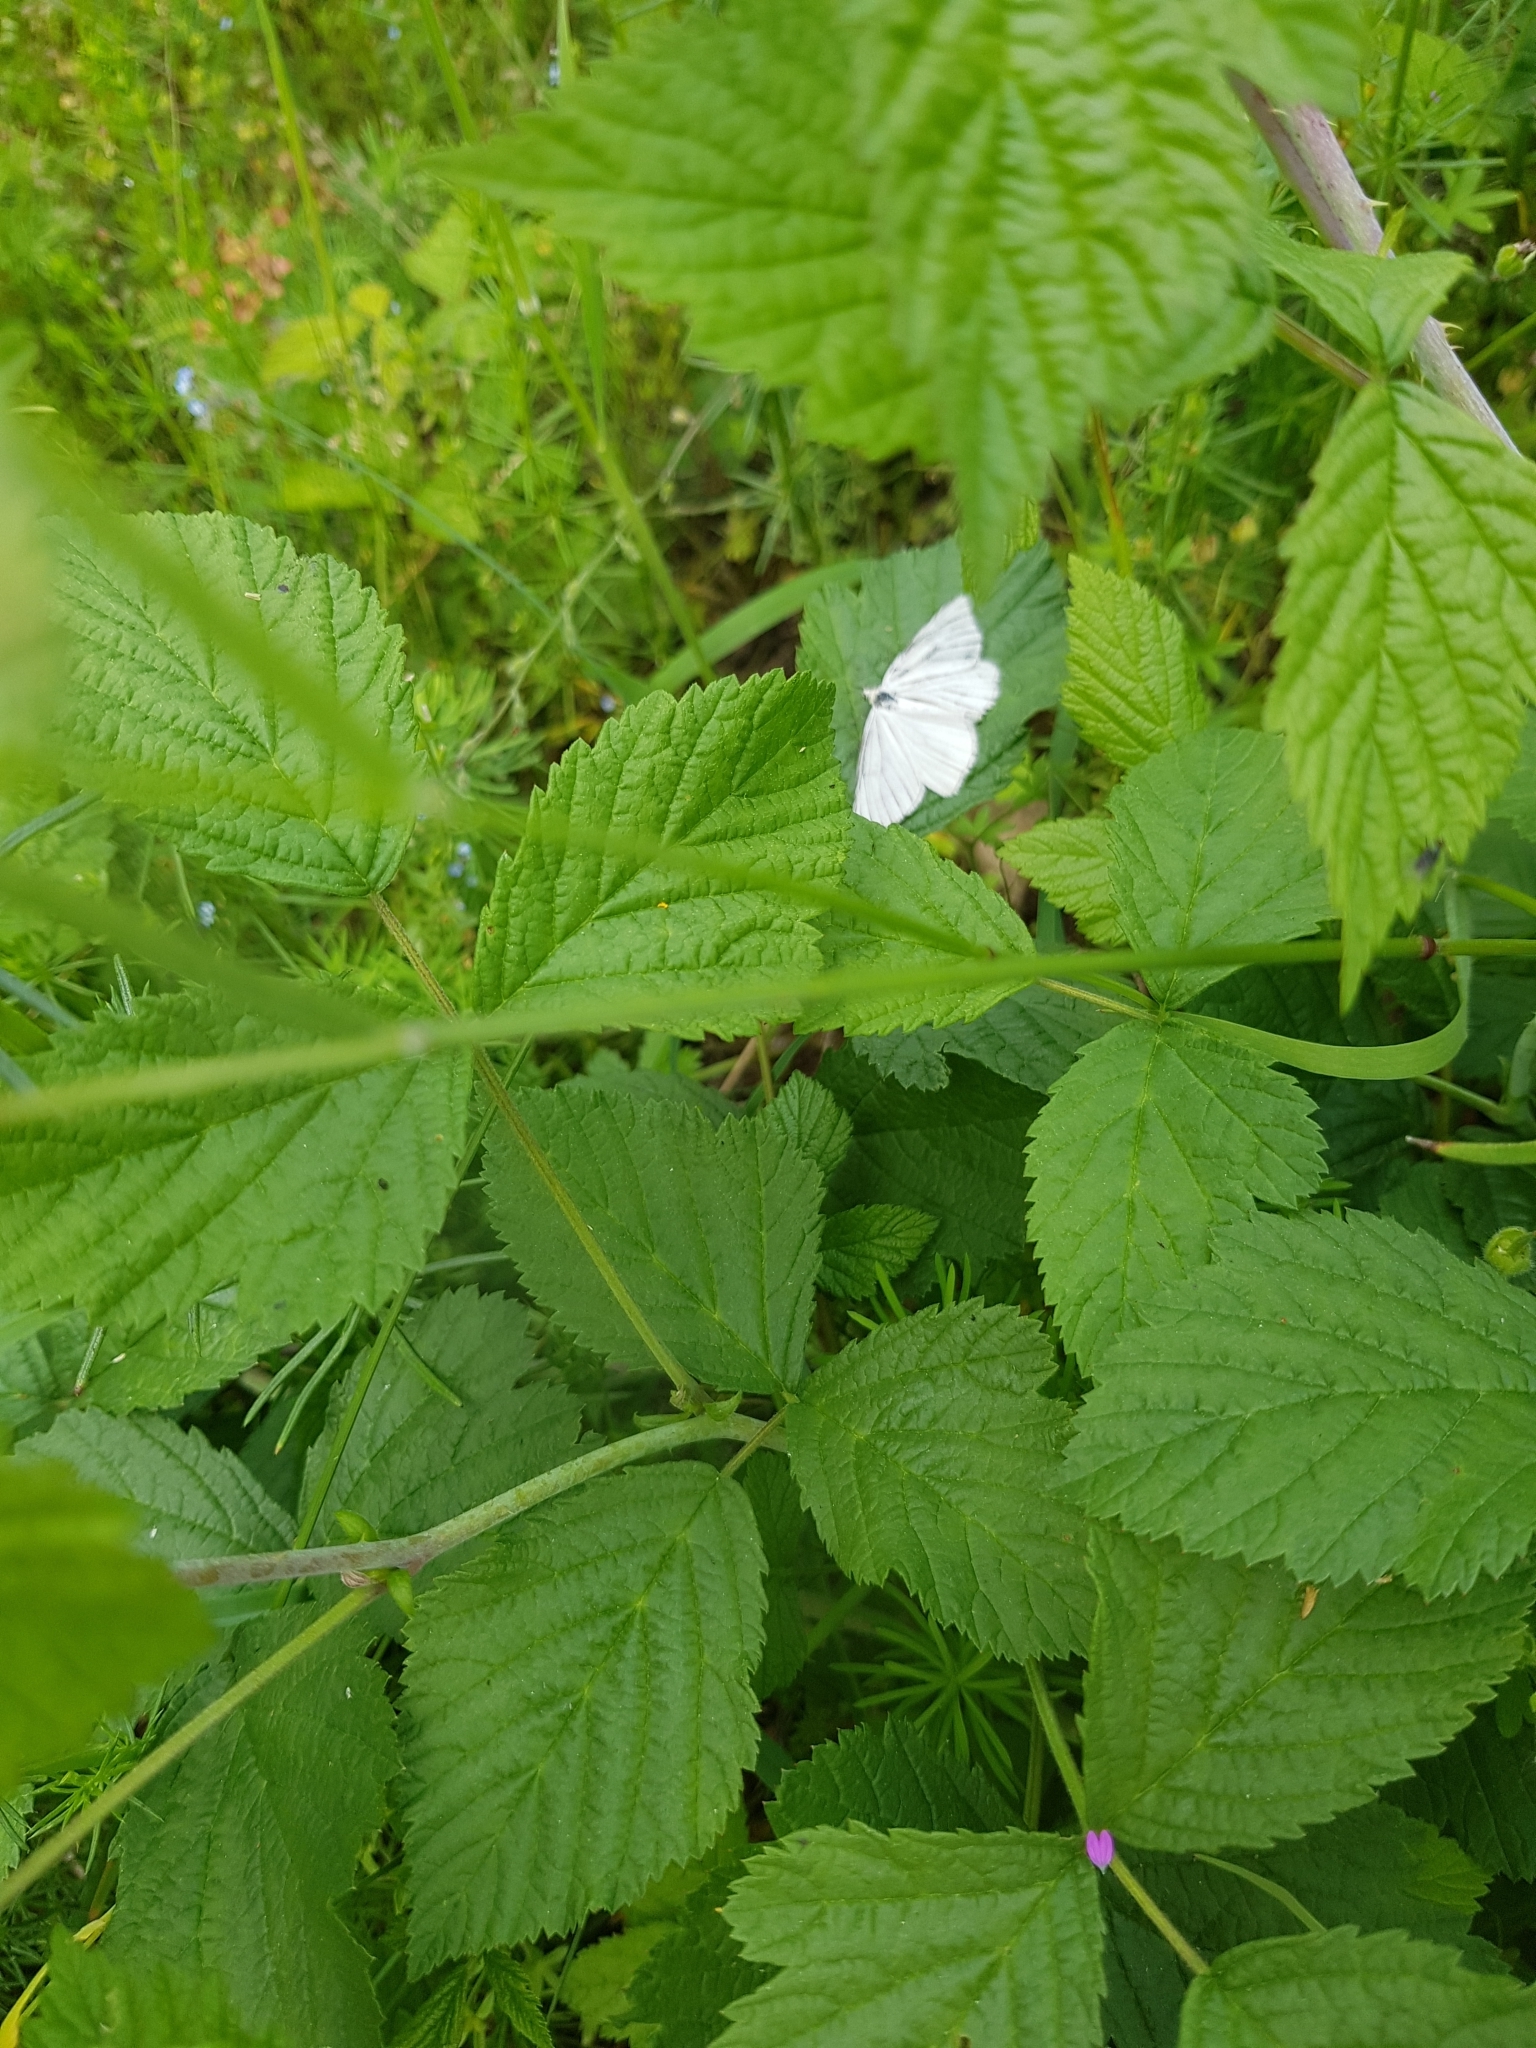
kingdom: Animalia
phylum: Arthropoda
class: Insecta
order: Lepidoptera
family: Geometridae
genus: Siona
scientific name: Siona lineata
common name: Black-veined moth
